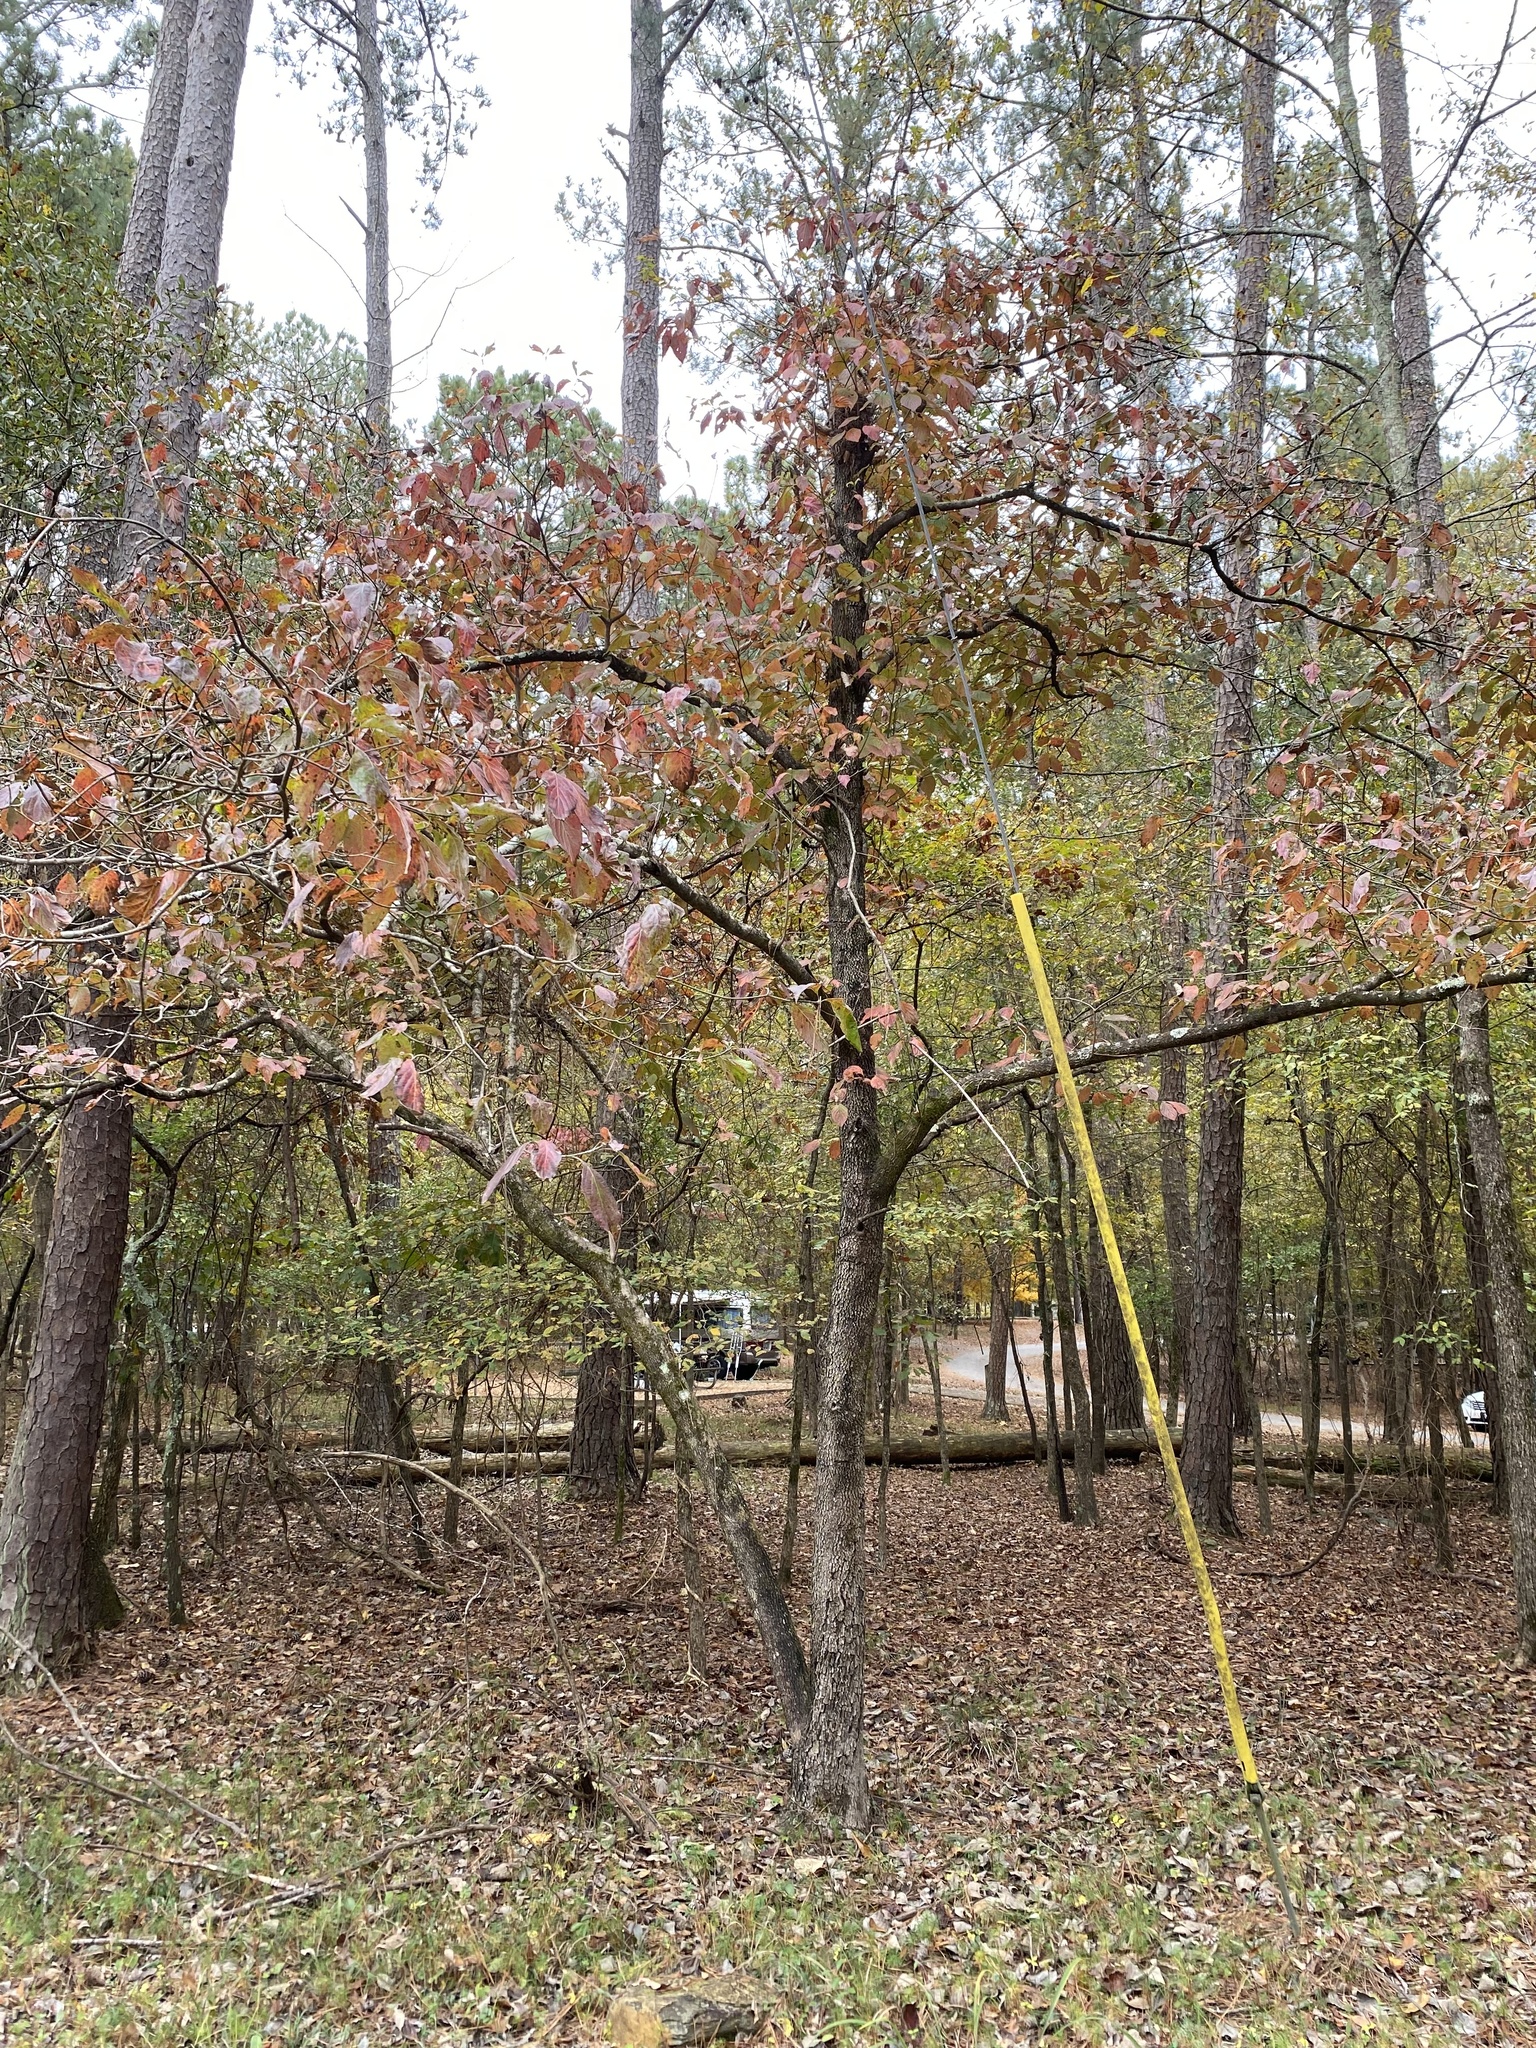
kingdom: Plantae
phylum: Tracheophyta
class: Magnoliopsida
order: Cornales
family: Cornaceae
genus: Cornus
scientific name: Cornus florida
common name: Flowering dogwood
